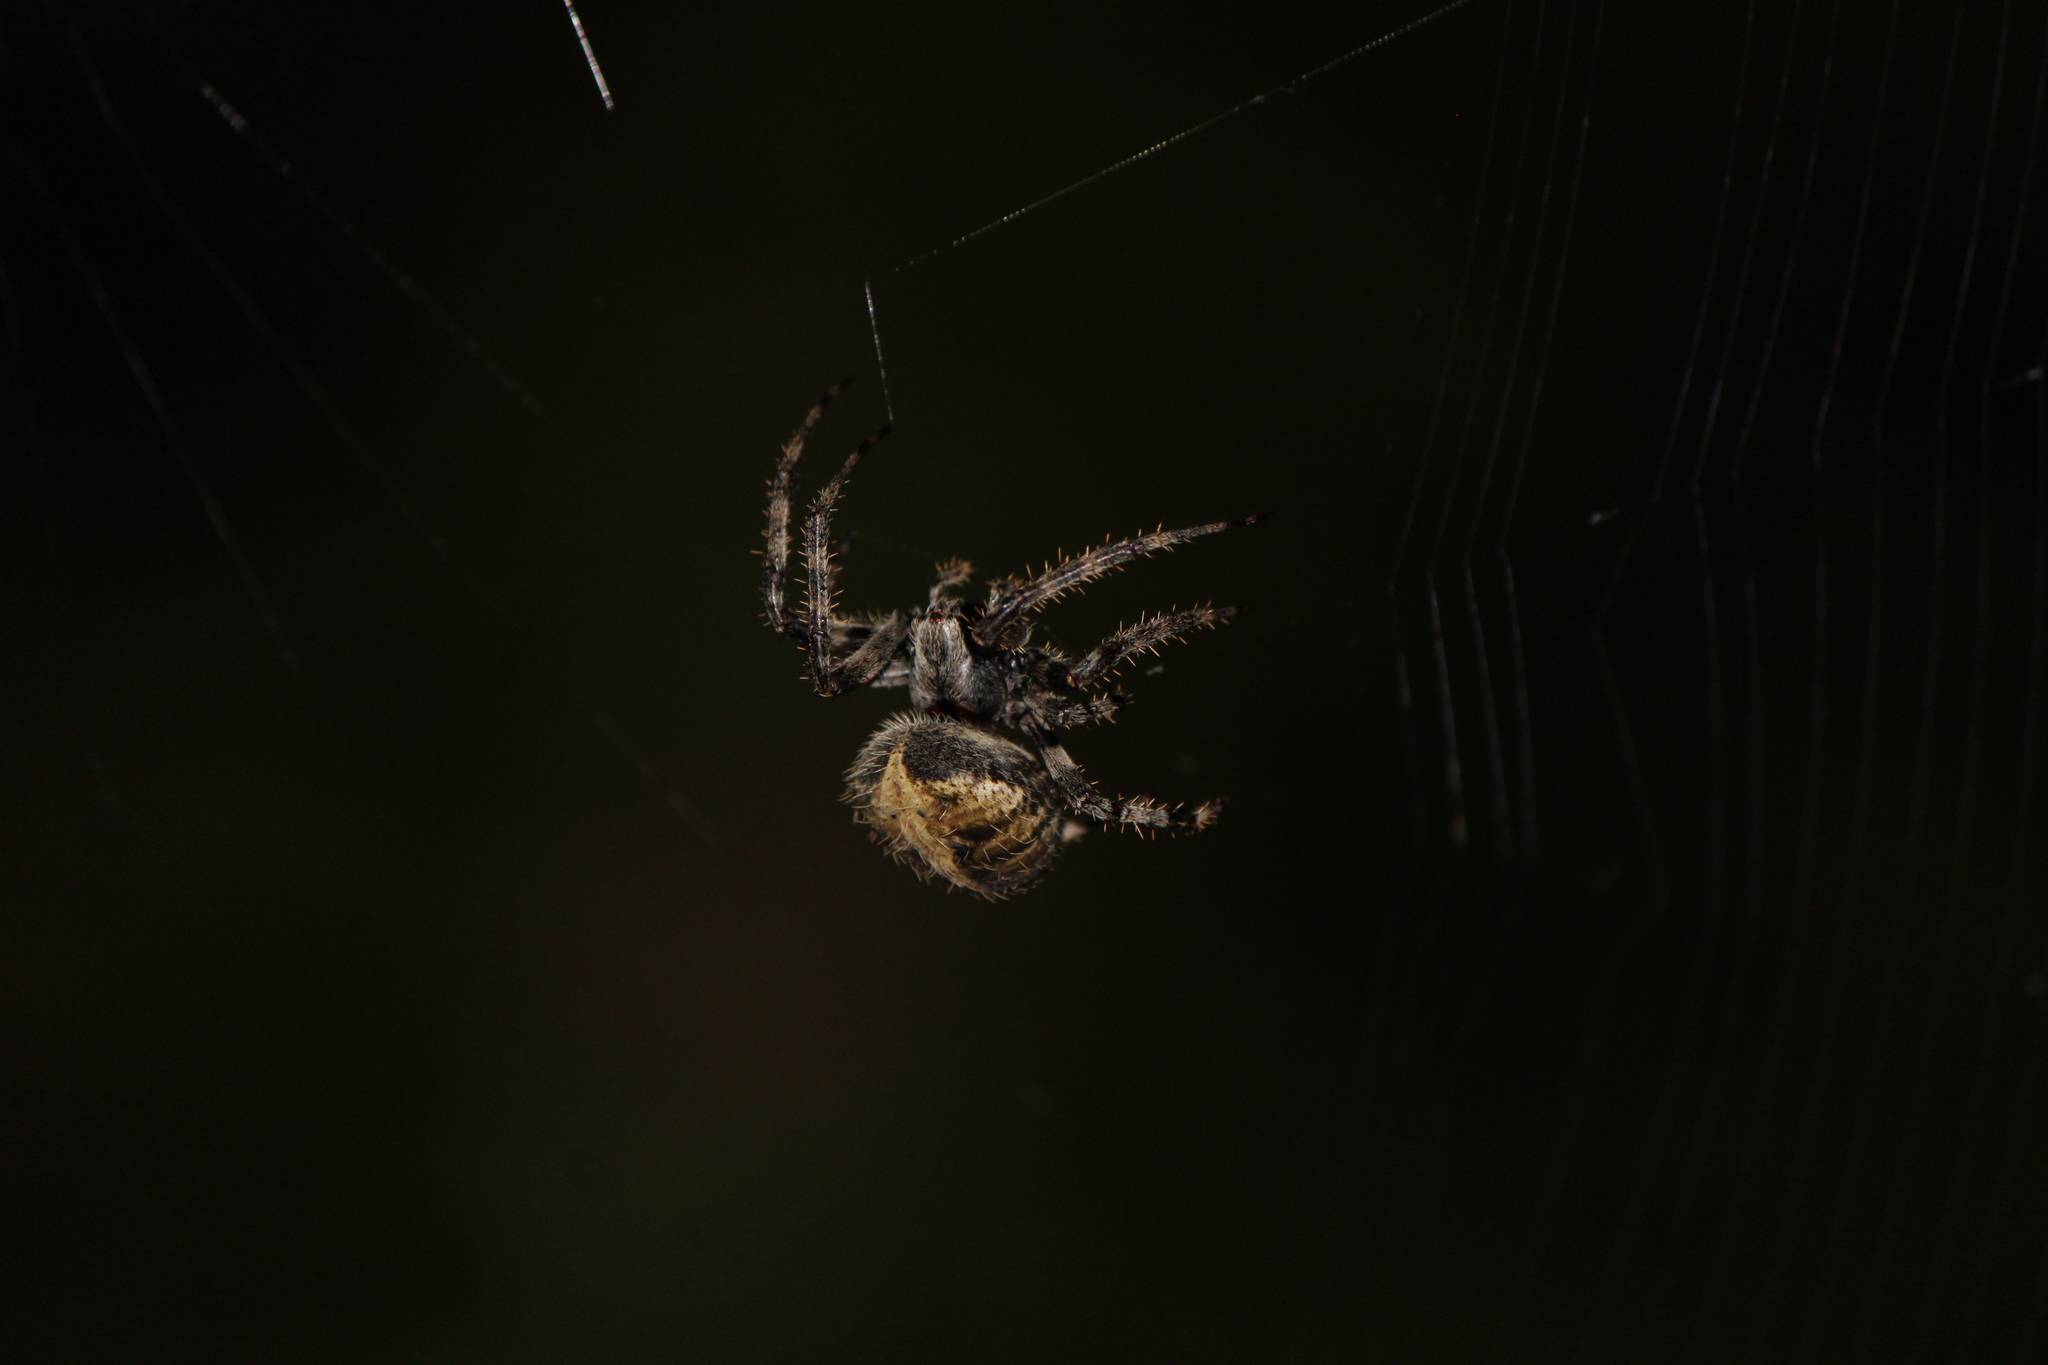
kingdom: Animalia
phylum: Arthropoda
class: Arachnida
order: Araneae
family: Araneidae
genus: Neoscona
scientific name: Neoscona crucifera
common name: Spotted orbweaver
